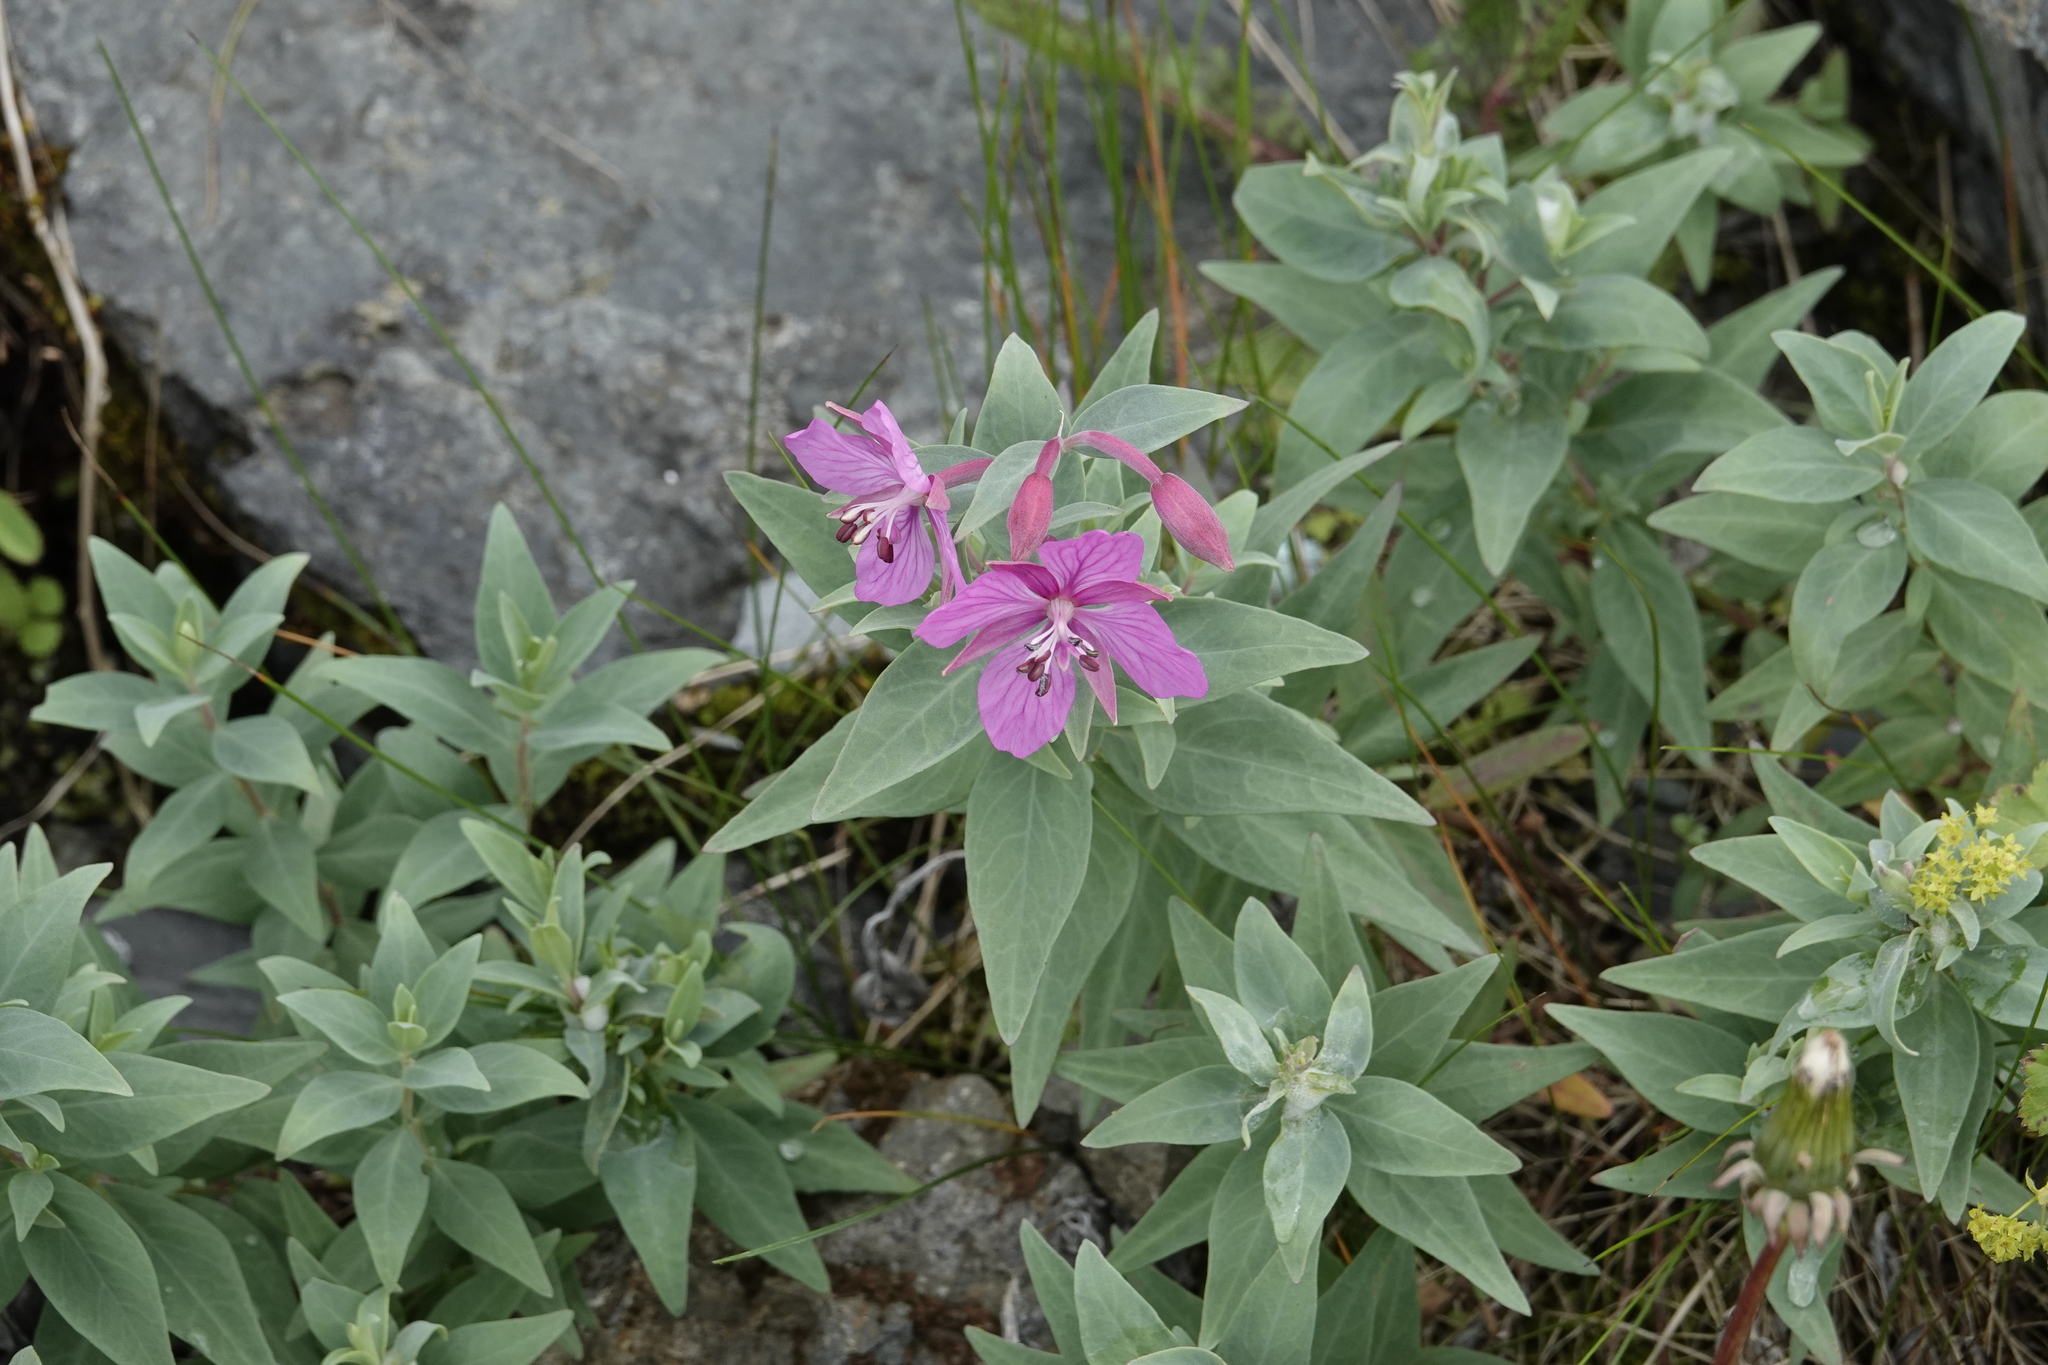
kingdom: Plantae
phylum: Tracheophyta
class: Magnoliopsida
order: Myrtales
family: Onagraceae
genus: Chamaenerion
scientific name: Chamaenerion latifolium
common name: Dwarf fireweed
